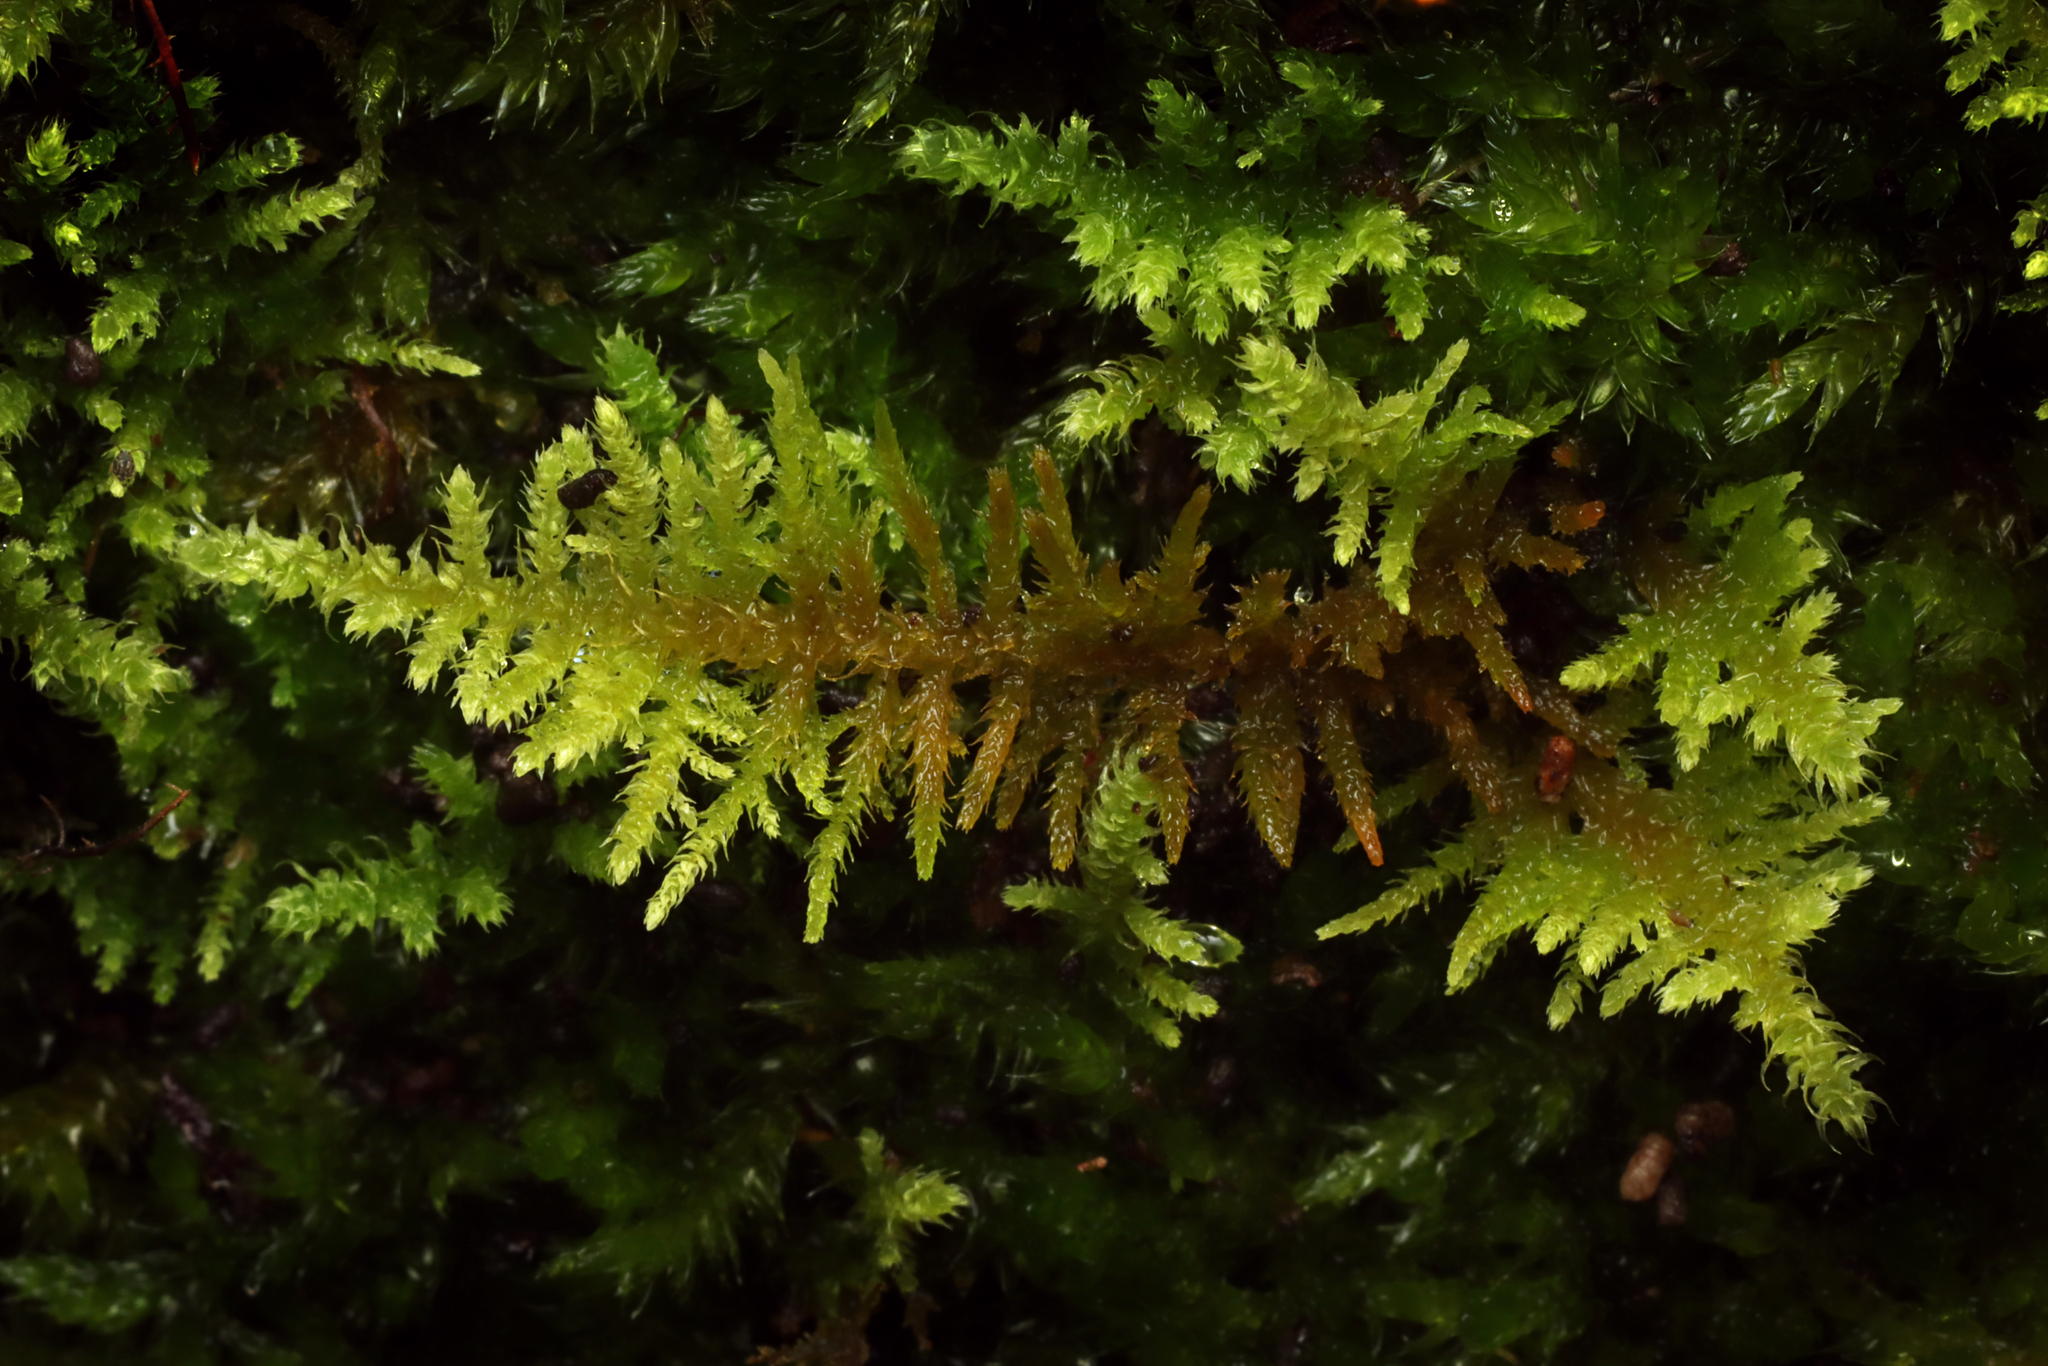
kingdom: Plantae
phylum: Bryophyta
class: Bryopsida
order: Hypnales
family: Thuidiaceae
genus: Thuidiopsis
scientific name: Thuidiopsis sparsa
